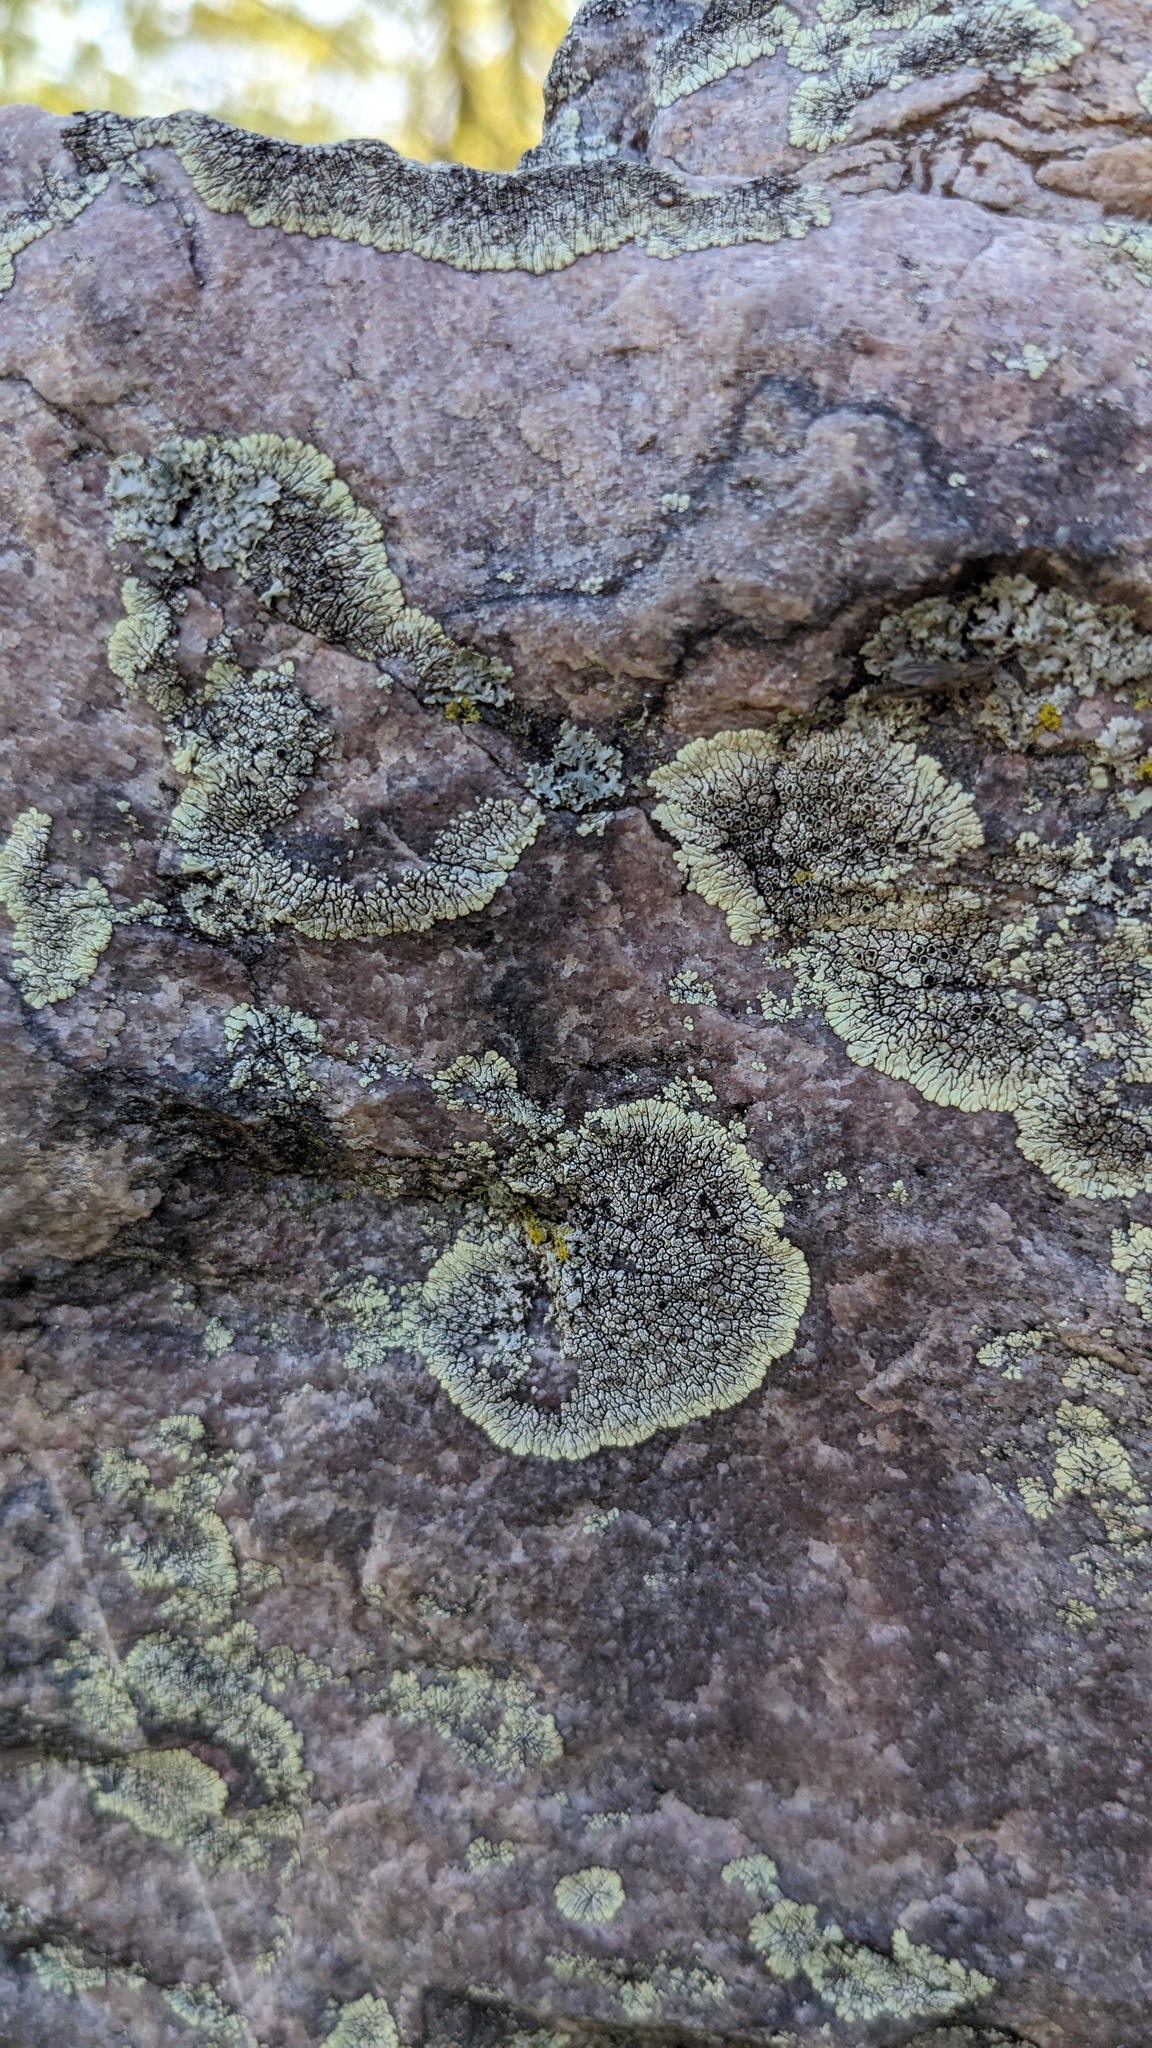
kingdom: Fungi
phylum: Ascomycota
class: Lecanoromycetes
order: Caliciales
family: Caliciaceae
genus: Dimelaena
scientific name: Dimelaena oreina
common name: Golden moonglow lichen
